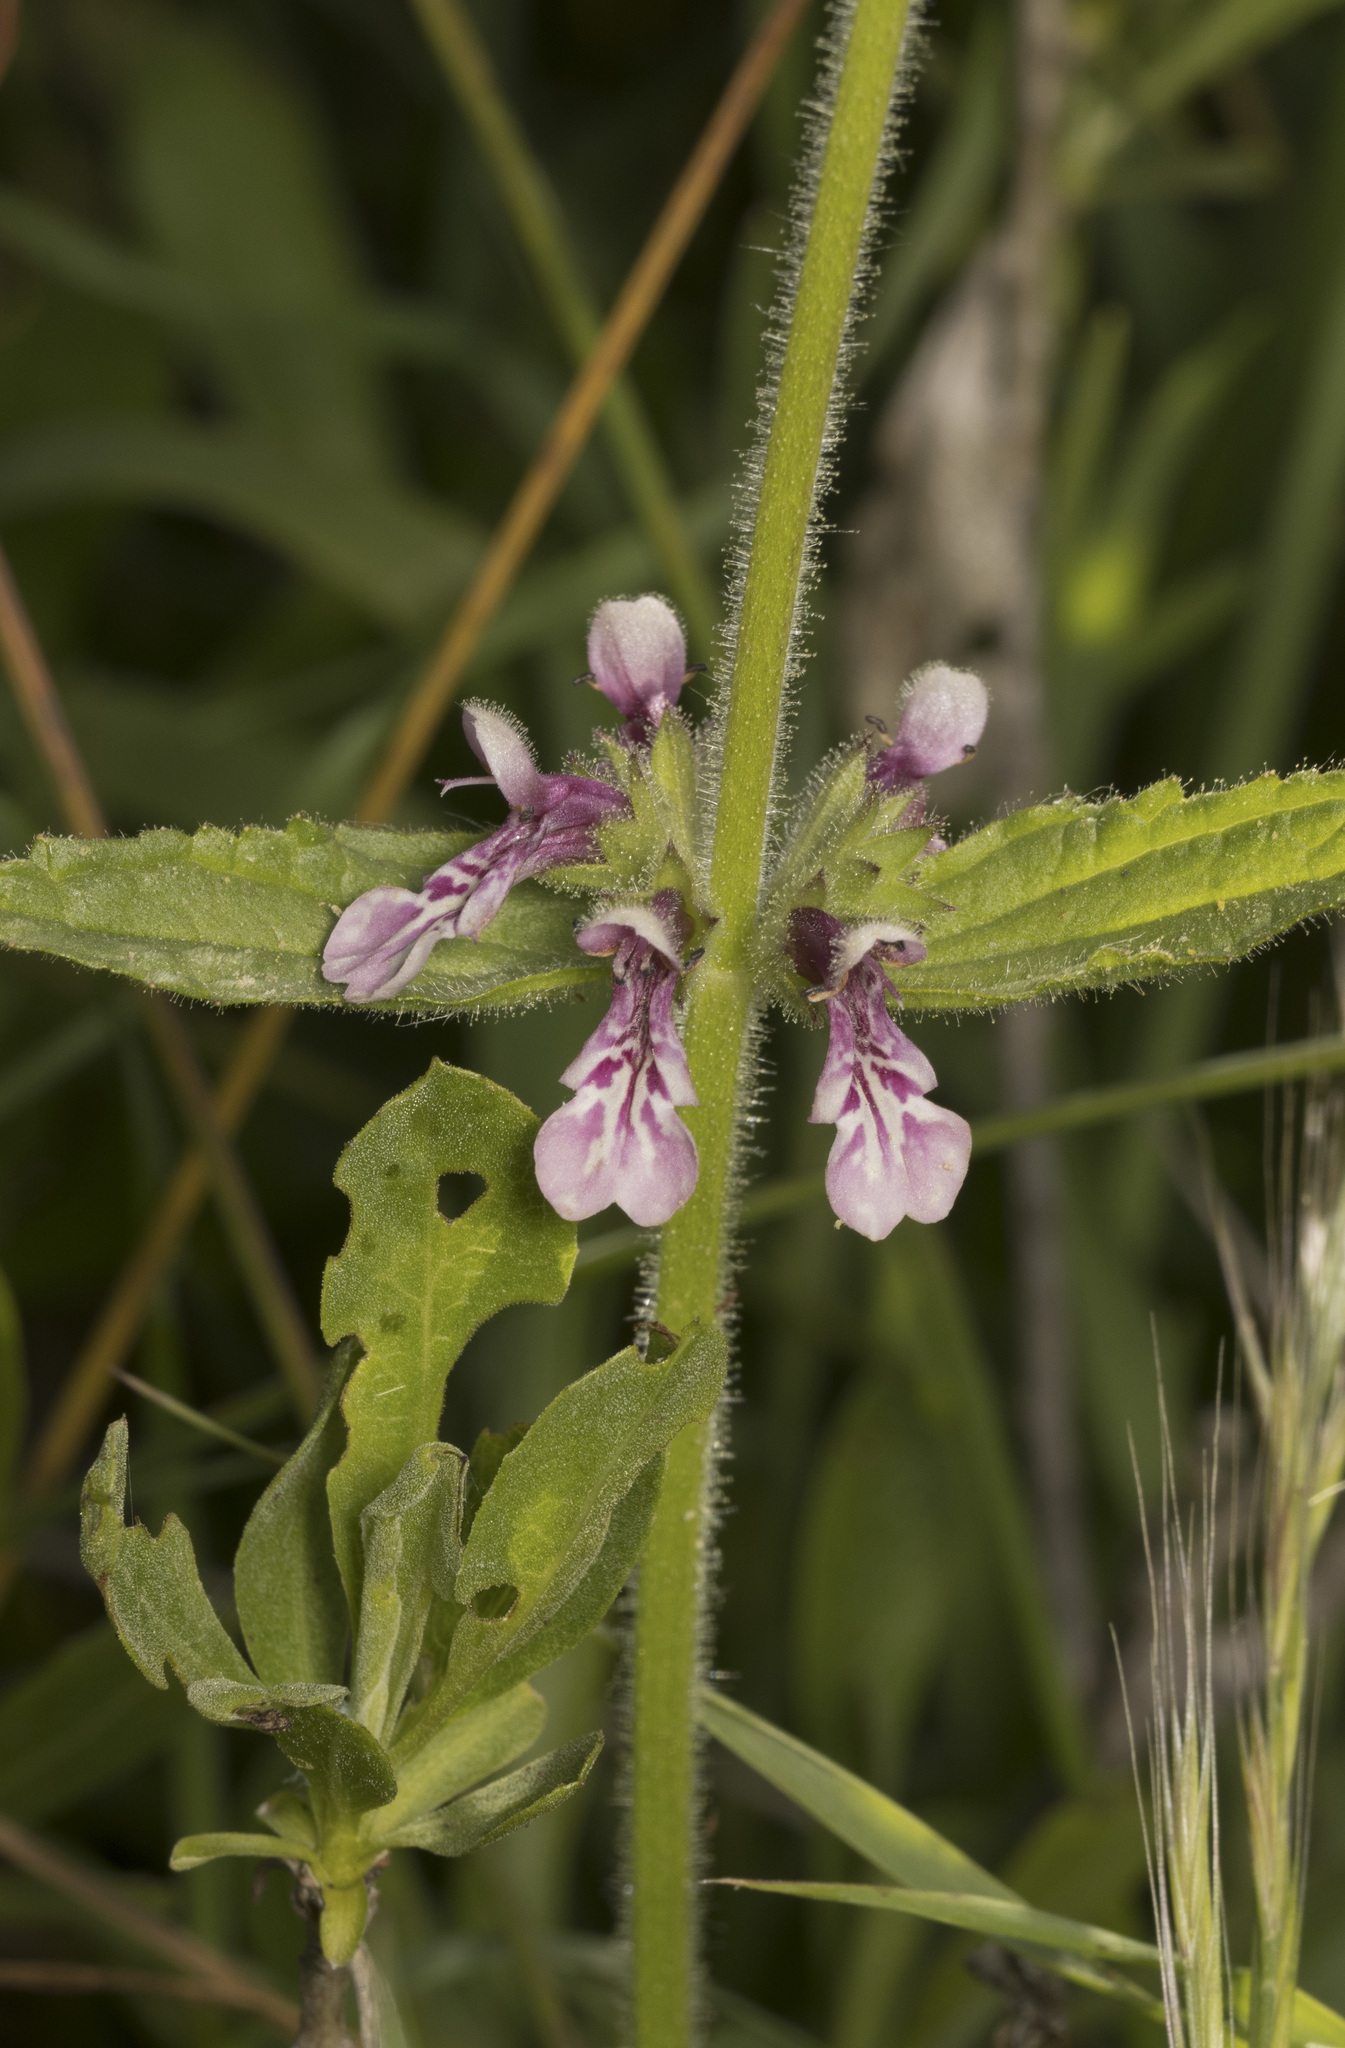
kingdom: Plantae
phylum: Tracheophyta
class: Magnoliopsida
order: Lamiales
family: Lamiaceae
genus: Stachys
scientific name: Stachys grandidentata
